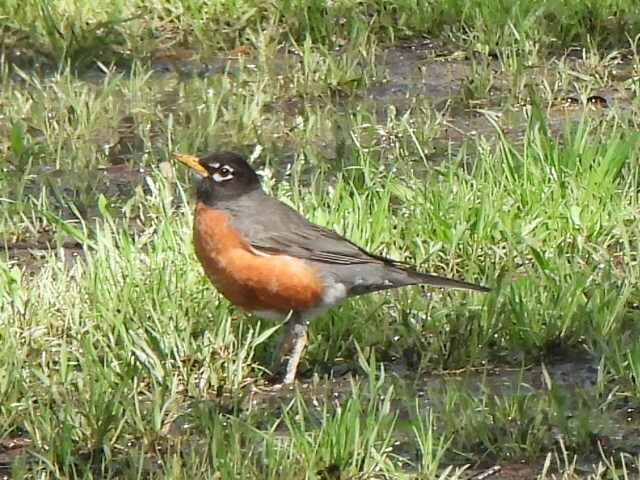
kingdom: Animalia
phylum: Chordata
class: Aves
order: Passeriformes
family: Turdidae
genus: Turdus
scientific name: Turdus migratorius
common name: American robin
